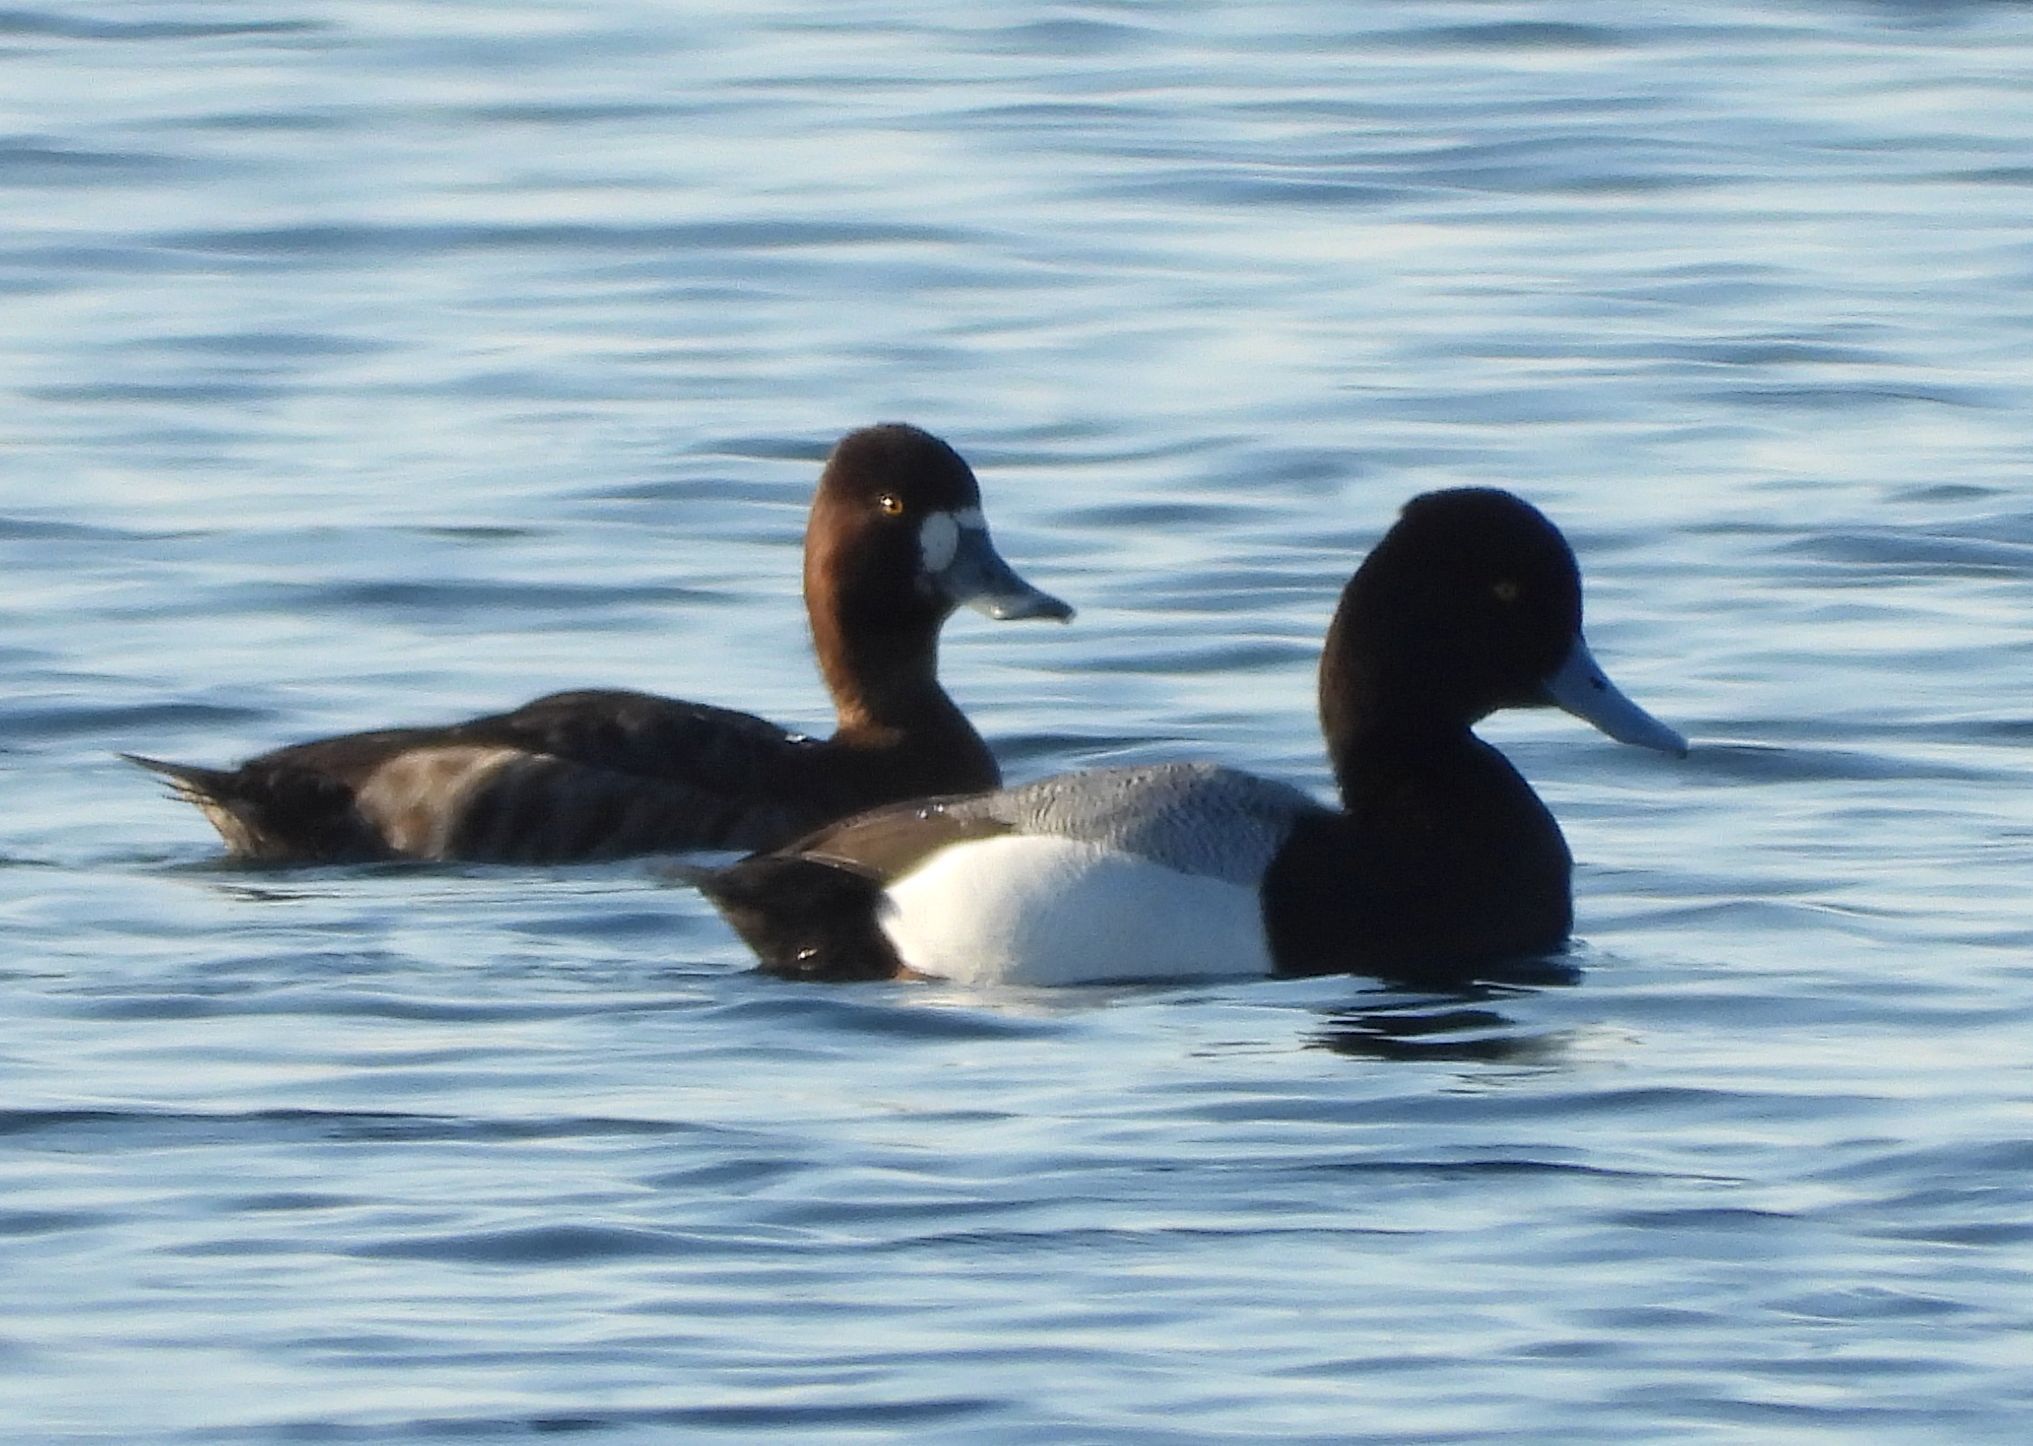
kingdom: Animalia
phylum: Chordata
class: Aves
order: Anseriformes
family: Anatidae
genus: Aythya
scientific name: Aythya affinis
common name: Lesser scaup
